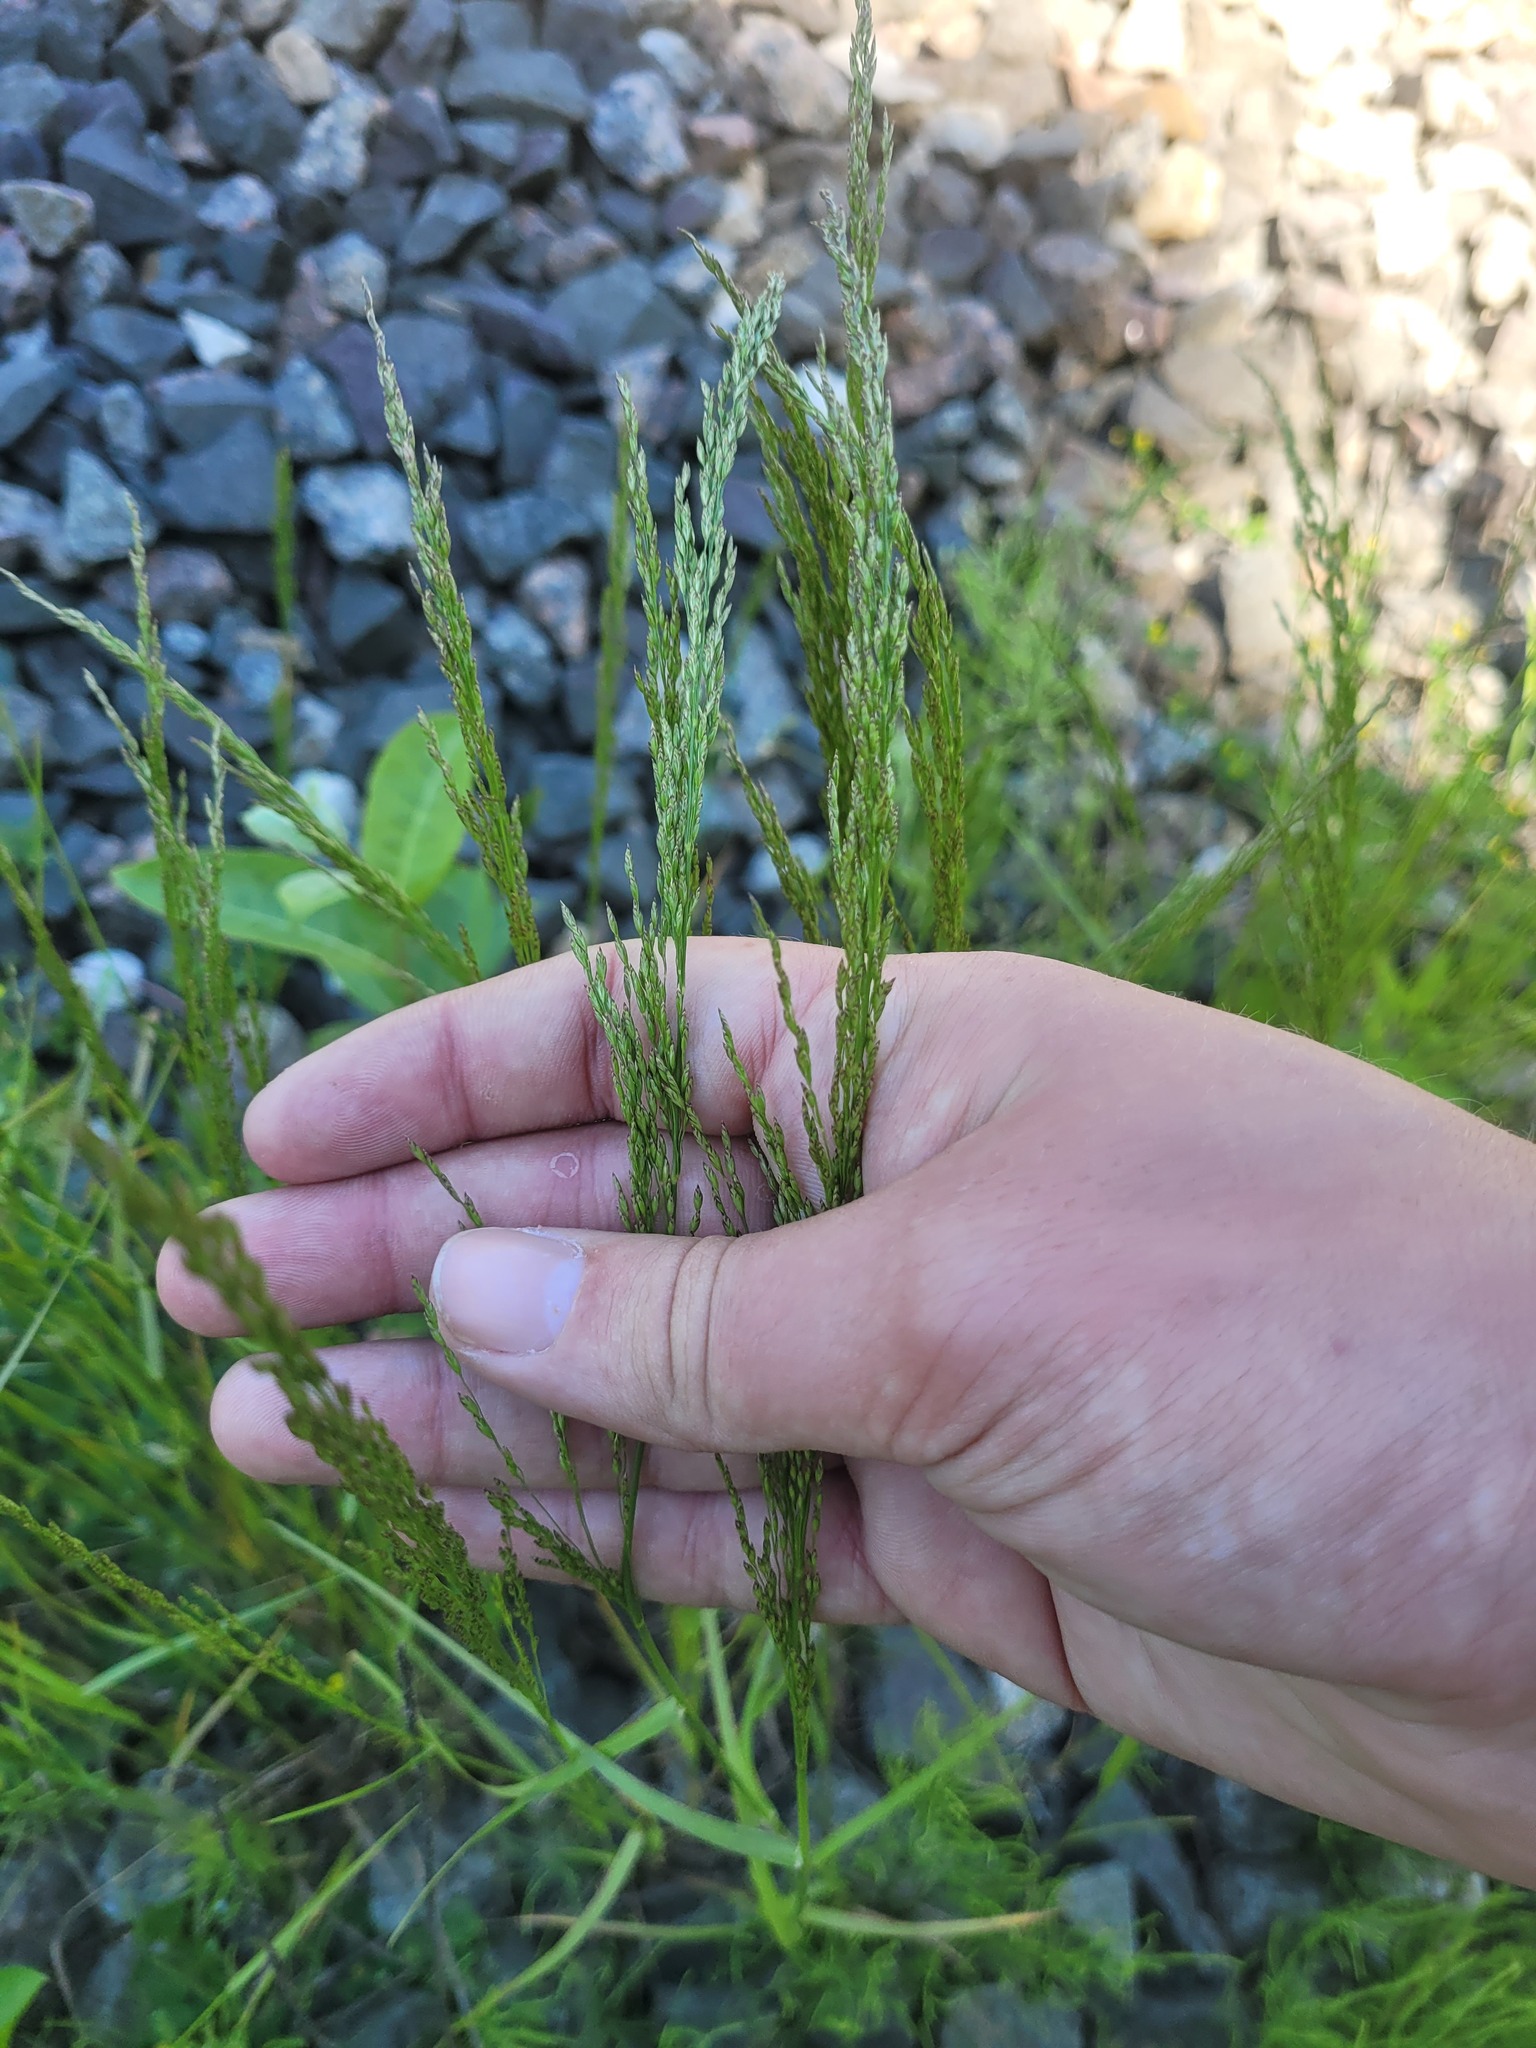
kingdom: Plantae
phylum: Tracheophyta
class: Liliopsida
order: Poales
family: Poaceae
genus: Poa
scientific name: Poa palustris
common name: Swamp meadow-grass
